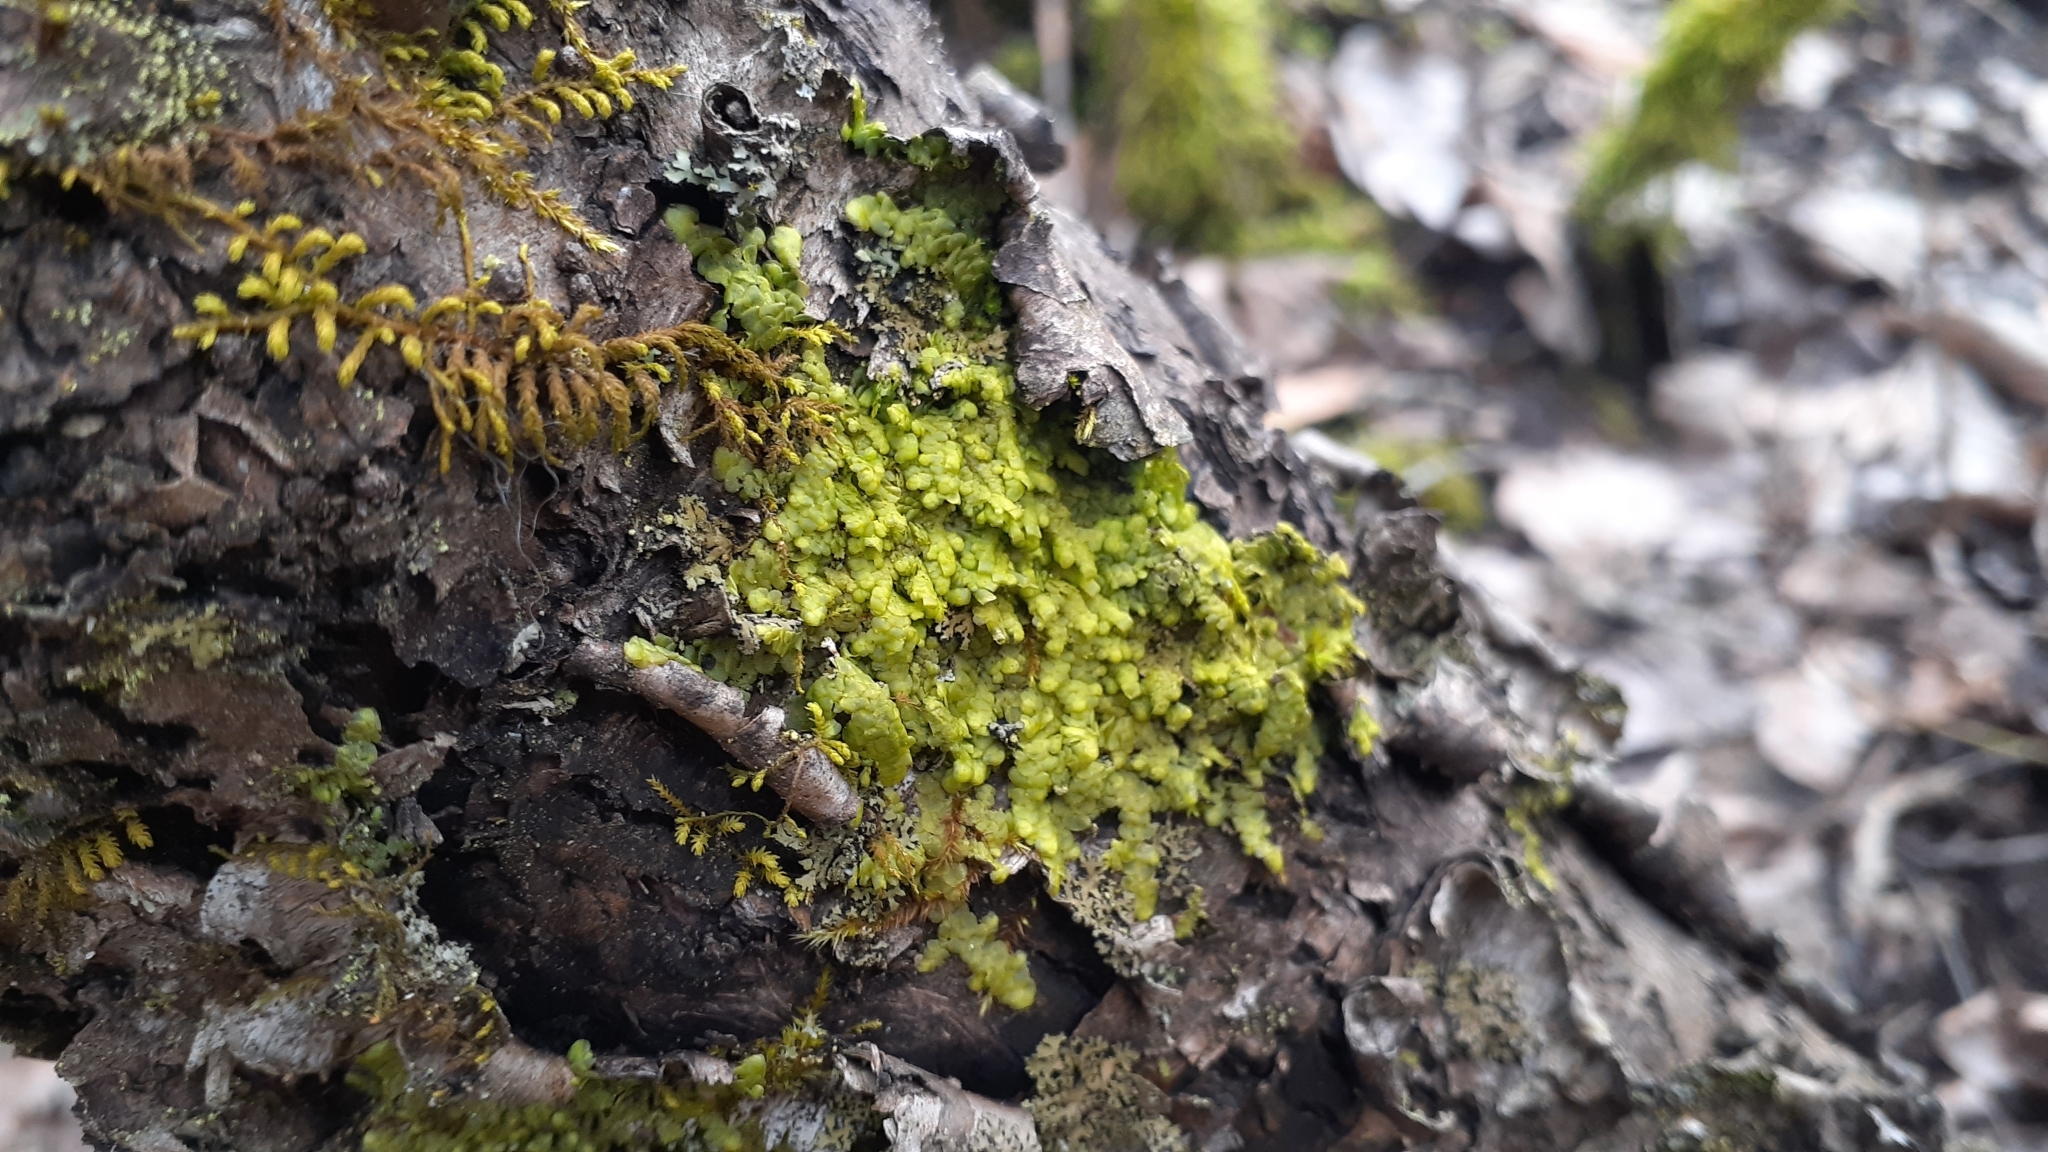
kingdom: Plantae
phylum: Marchantiophyta
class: Jungermanniopsida
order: Porellales
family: Radulaceae
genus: Radula
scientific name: Radula complanata
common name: Flat-leaved scalewort
